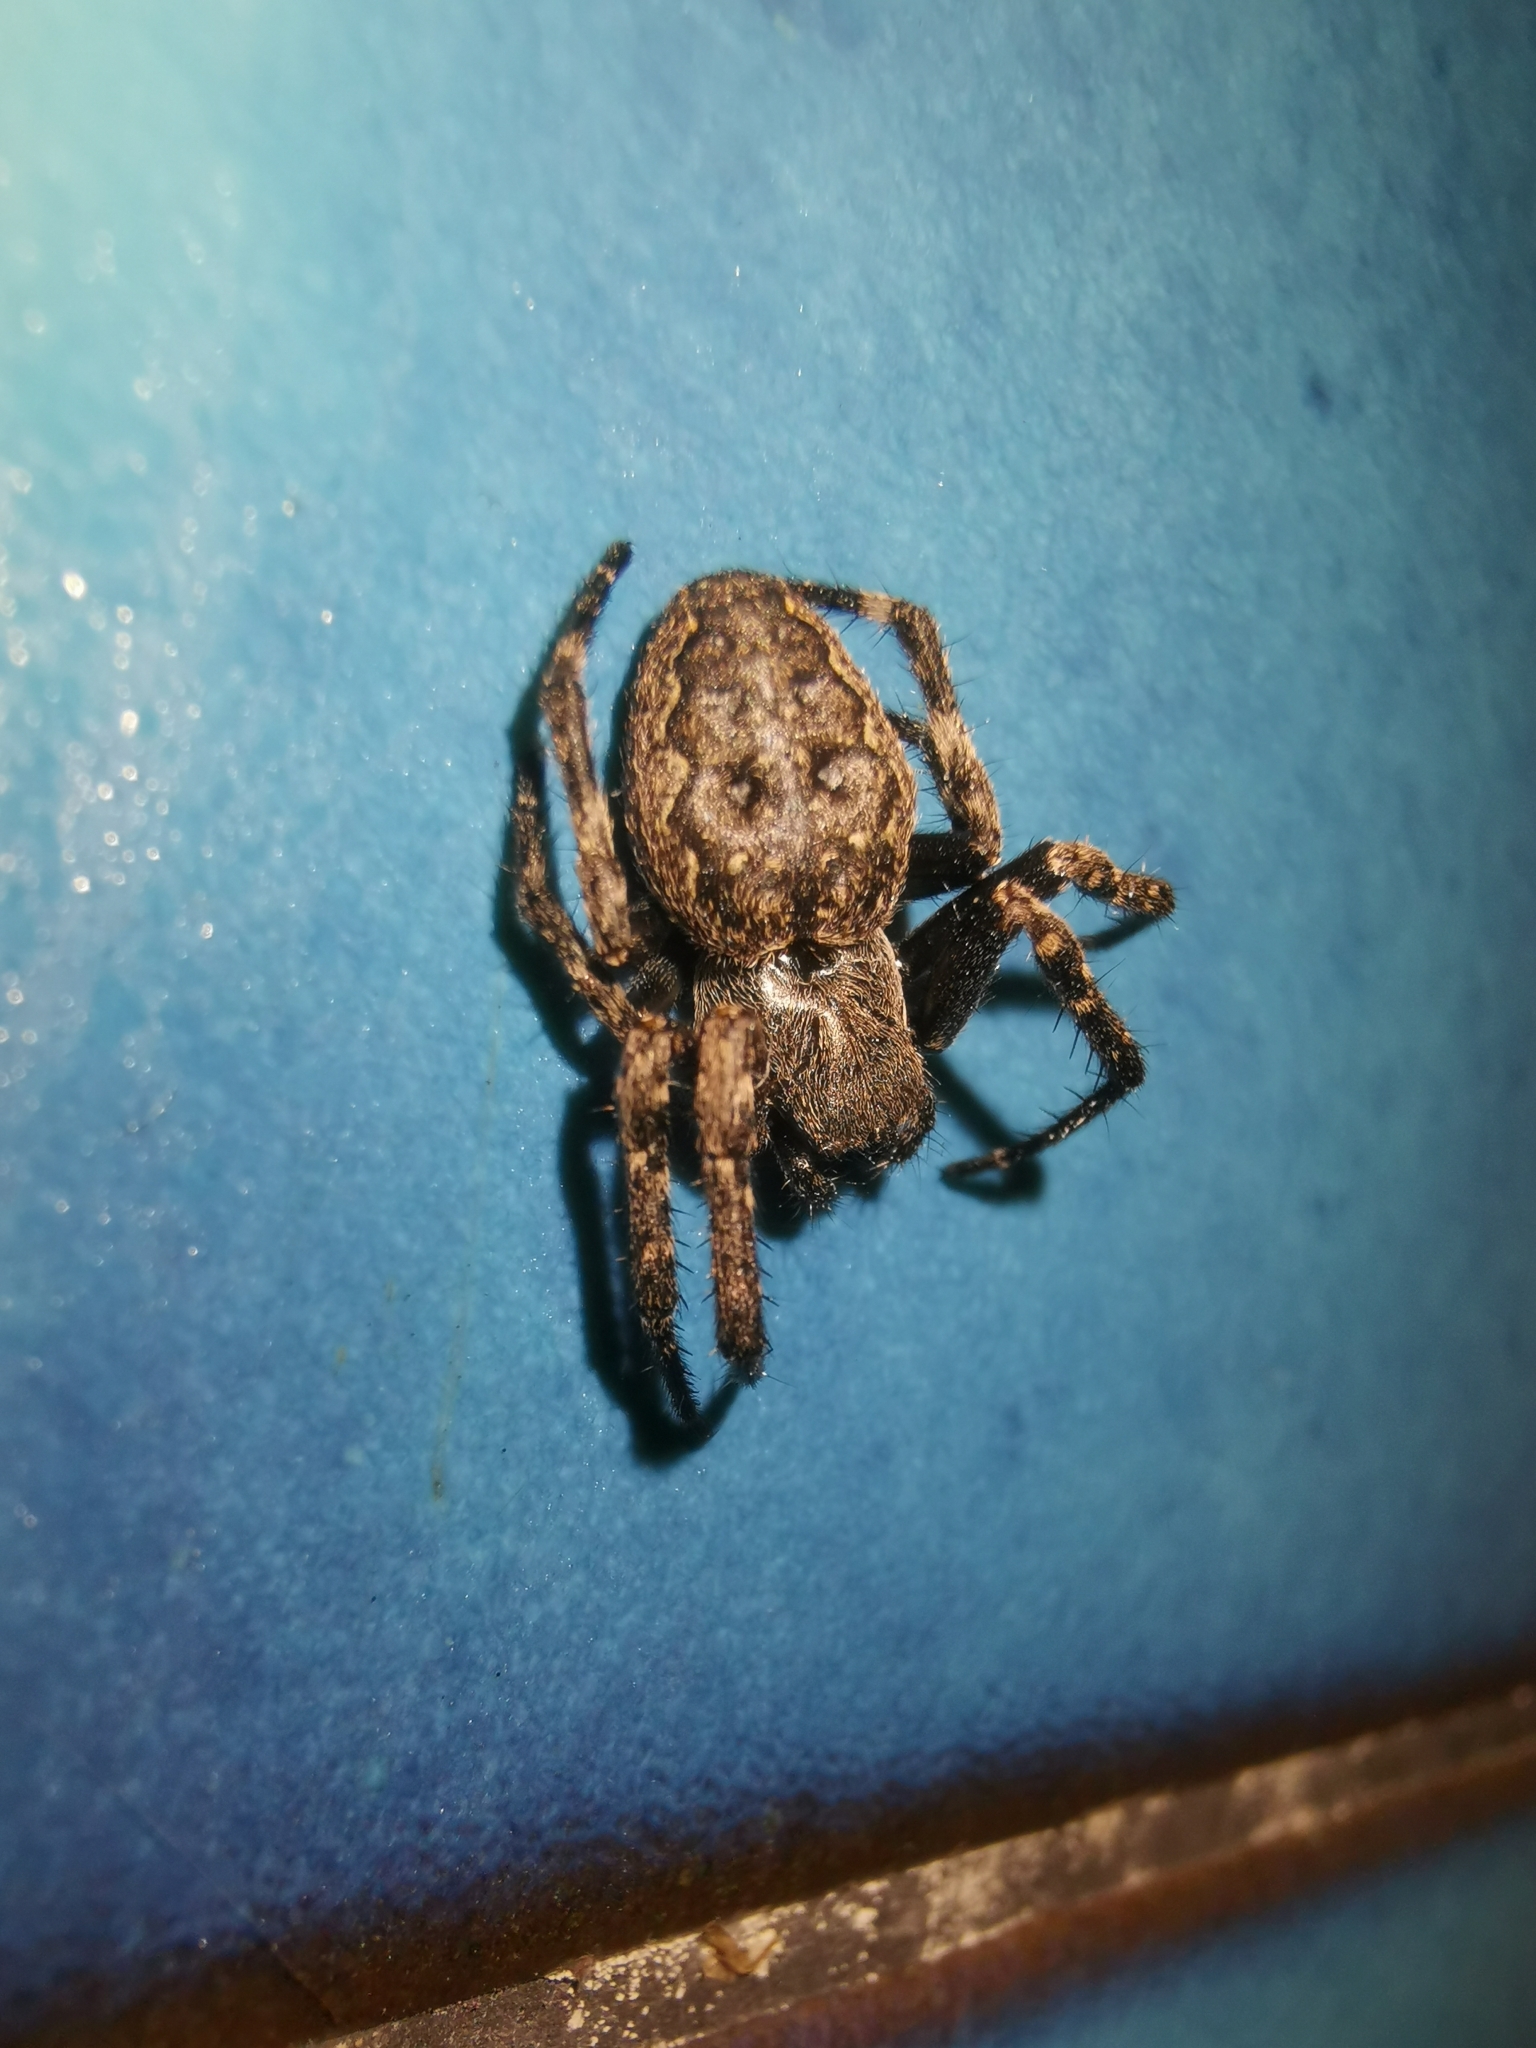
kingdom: Animalia
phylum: Arthropoda
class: Arachnida
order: Araneae
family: Araneidae
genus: Nuctenea
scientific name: Nuctenea umbratica
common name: Toad spider
